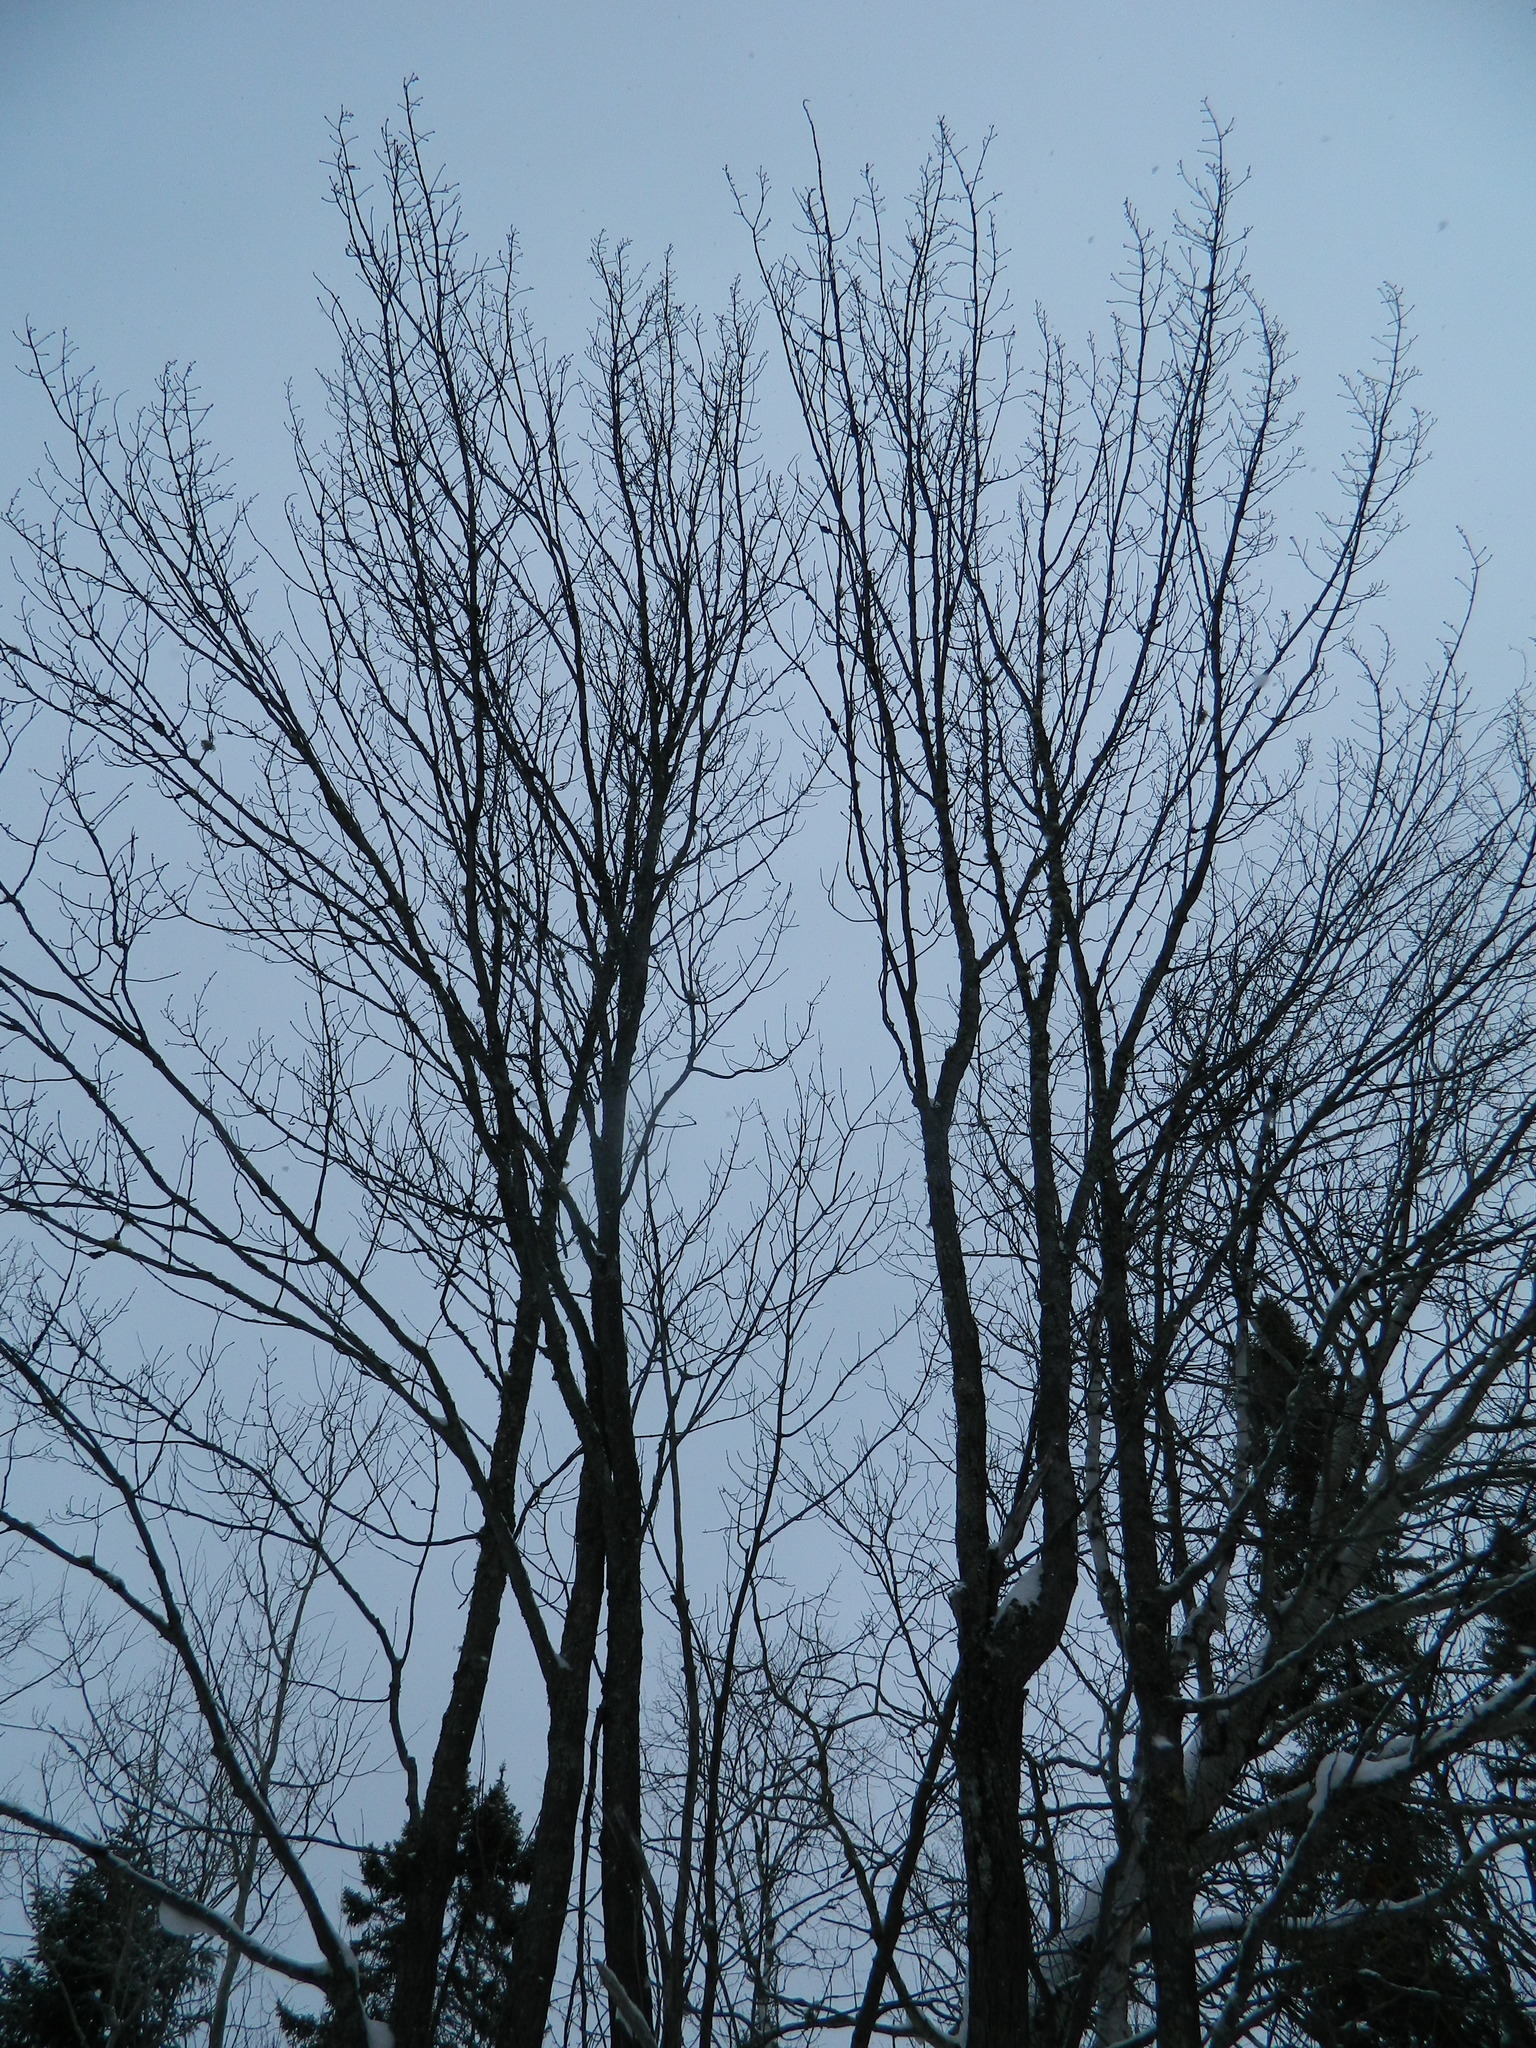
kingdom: Plantae
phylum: Tracheophyta
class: Magnoliopsida
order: Sapindales
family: Sapindaceae
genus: Acer
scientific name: Acer rubrum
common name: Red maple
